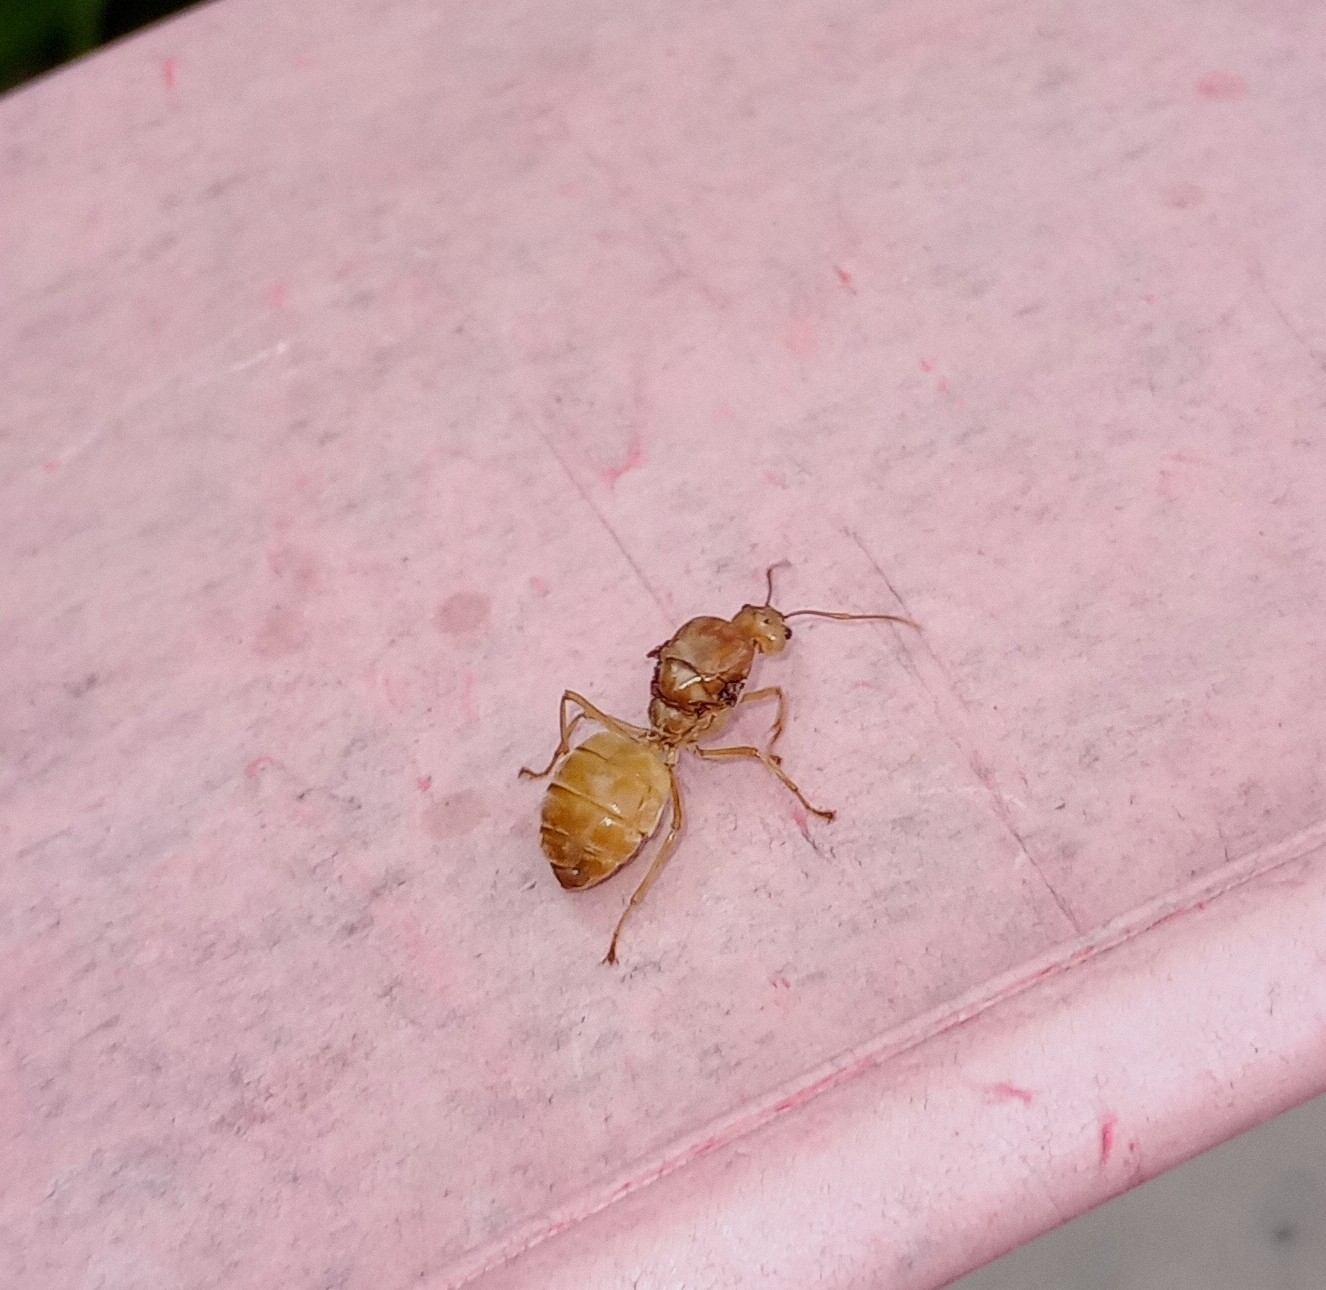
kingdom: Animalia
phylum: Arthropoda
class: Insecta
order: Hymenoptera
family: Formicidae
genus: Oecophylla
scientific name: Oecophylla smaragdina
